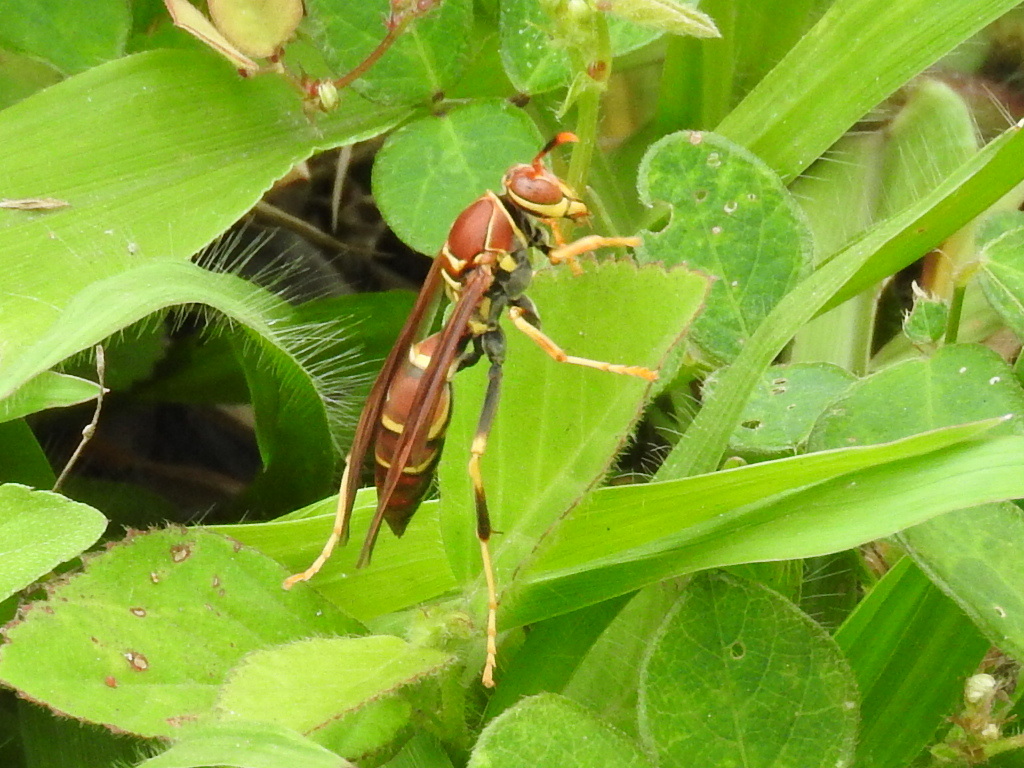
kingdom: Animalia
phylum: Arthropoda
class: Insecta
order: Hymenoptera
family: Eumenidae
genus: Polistes
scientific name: Polistes instabilis
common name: Unstable paper wasp
